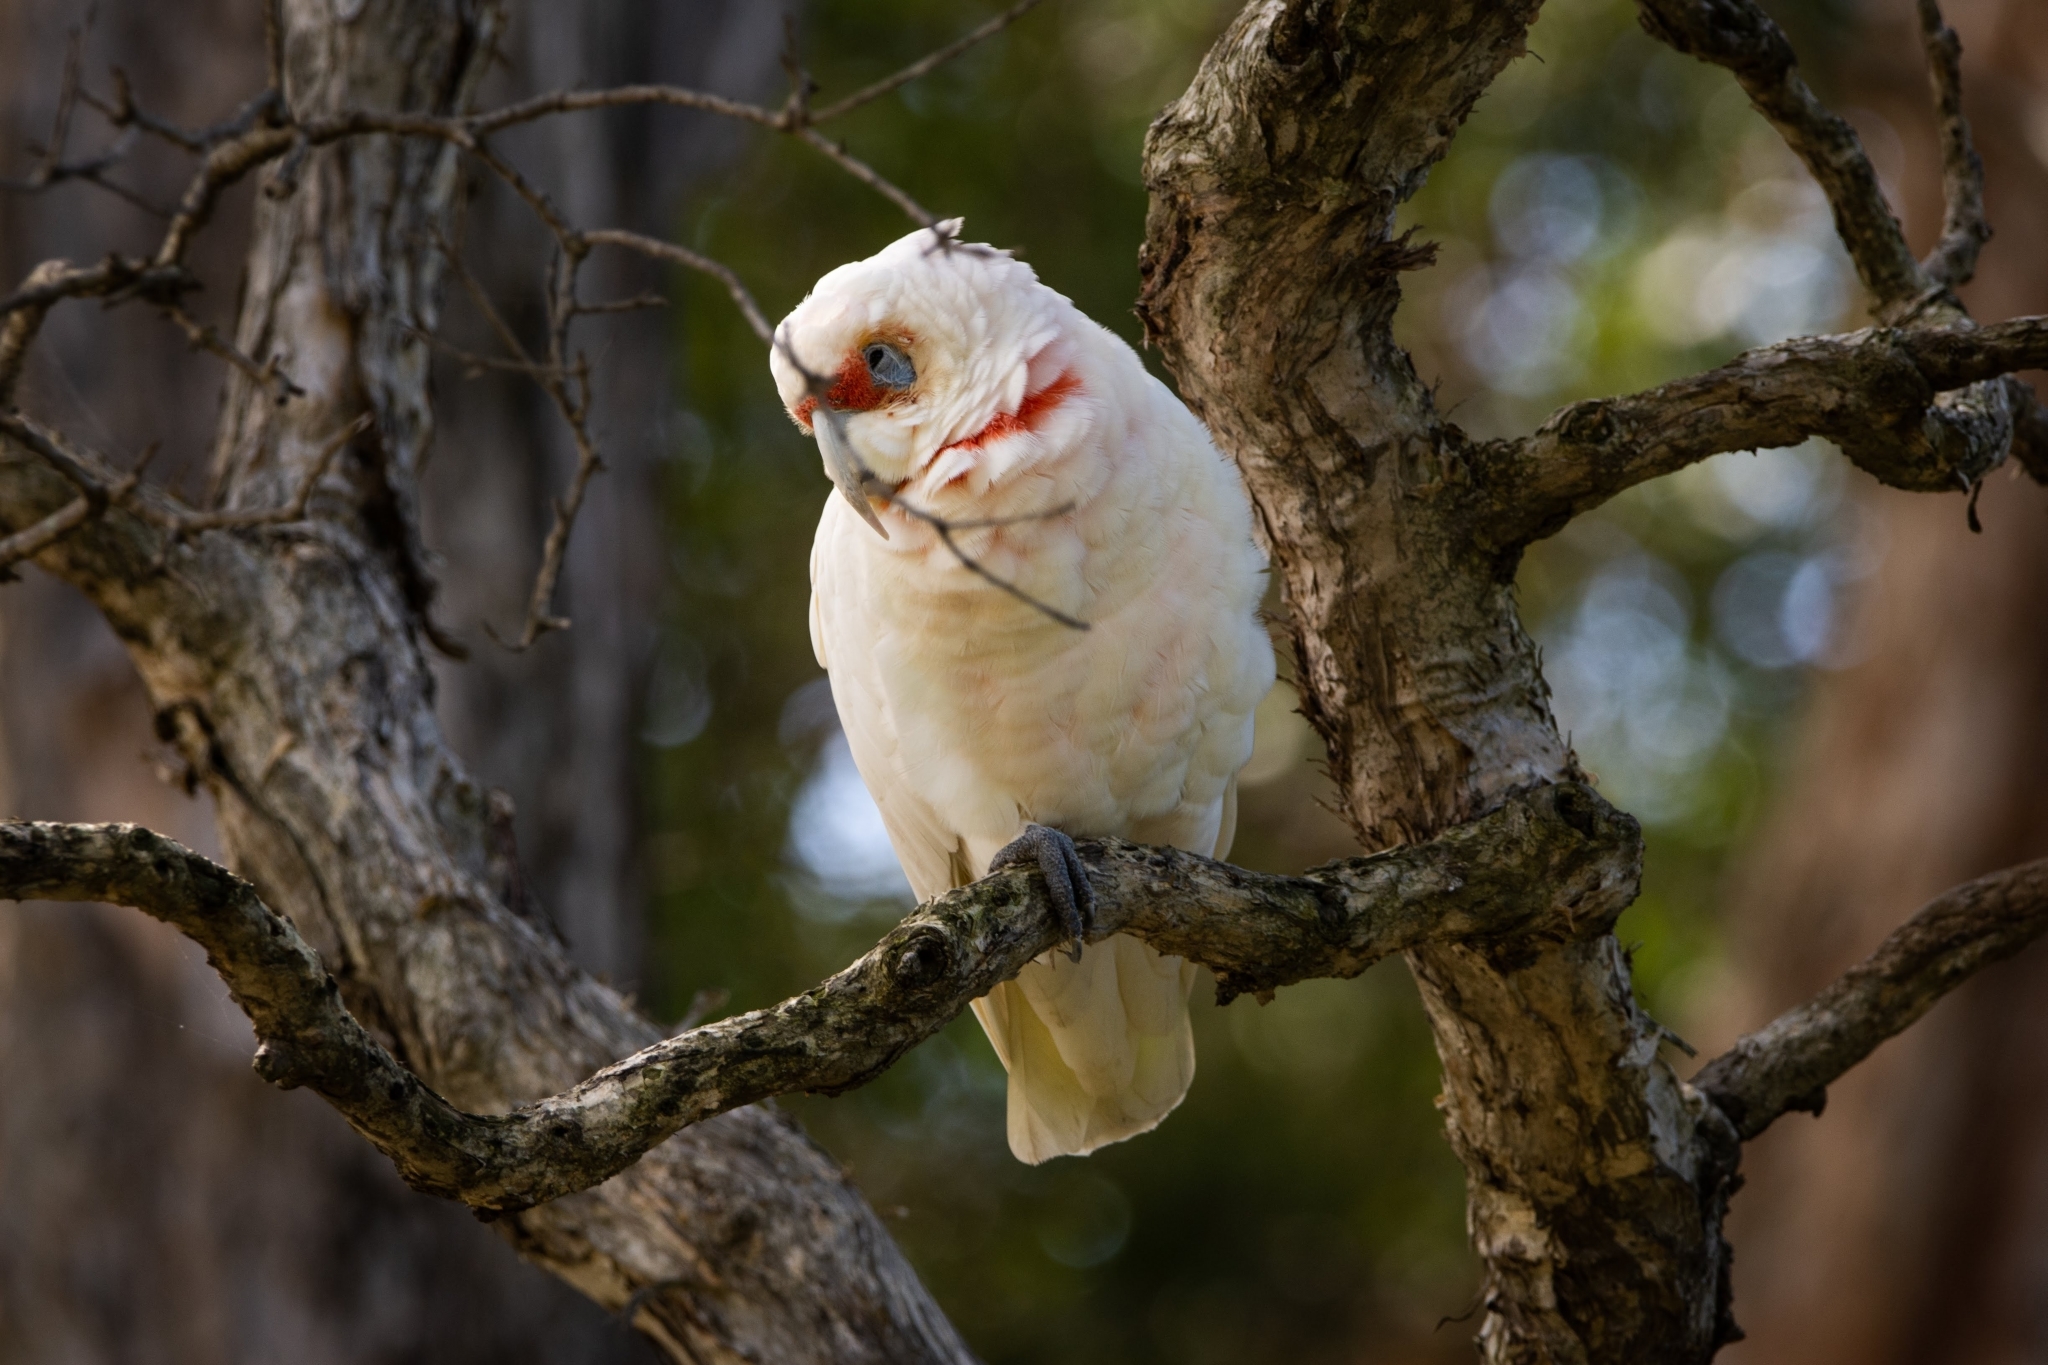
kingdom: Animalia
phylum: Chordata
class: Aves
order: Psittaciformes
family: Psittacidae
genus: Cacatua
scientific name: Cacatua tenuirostris
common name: Long-billed corella
